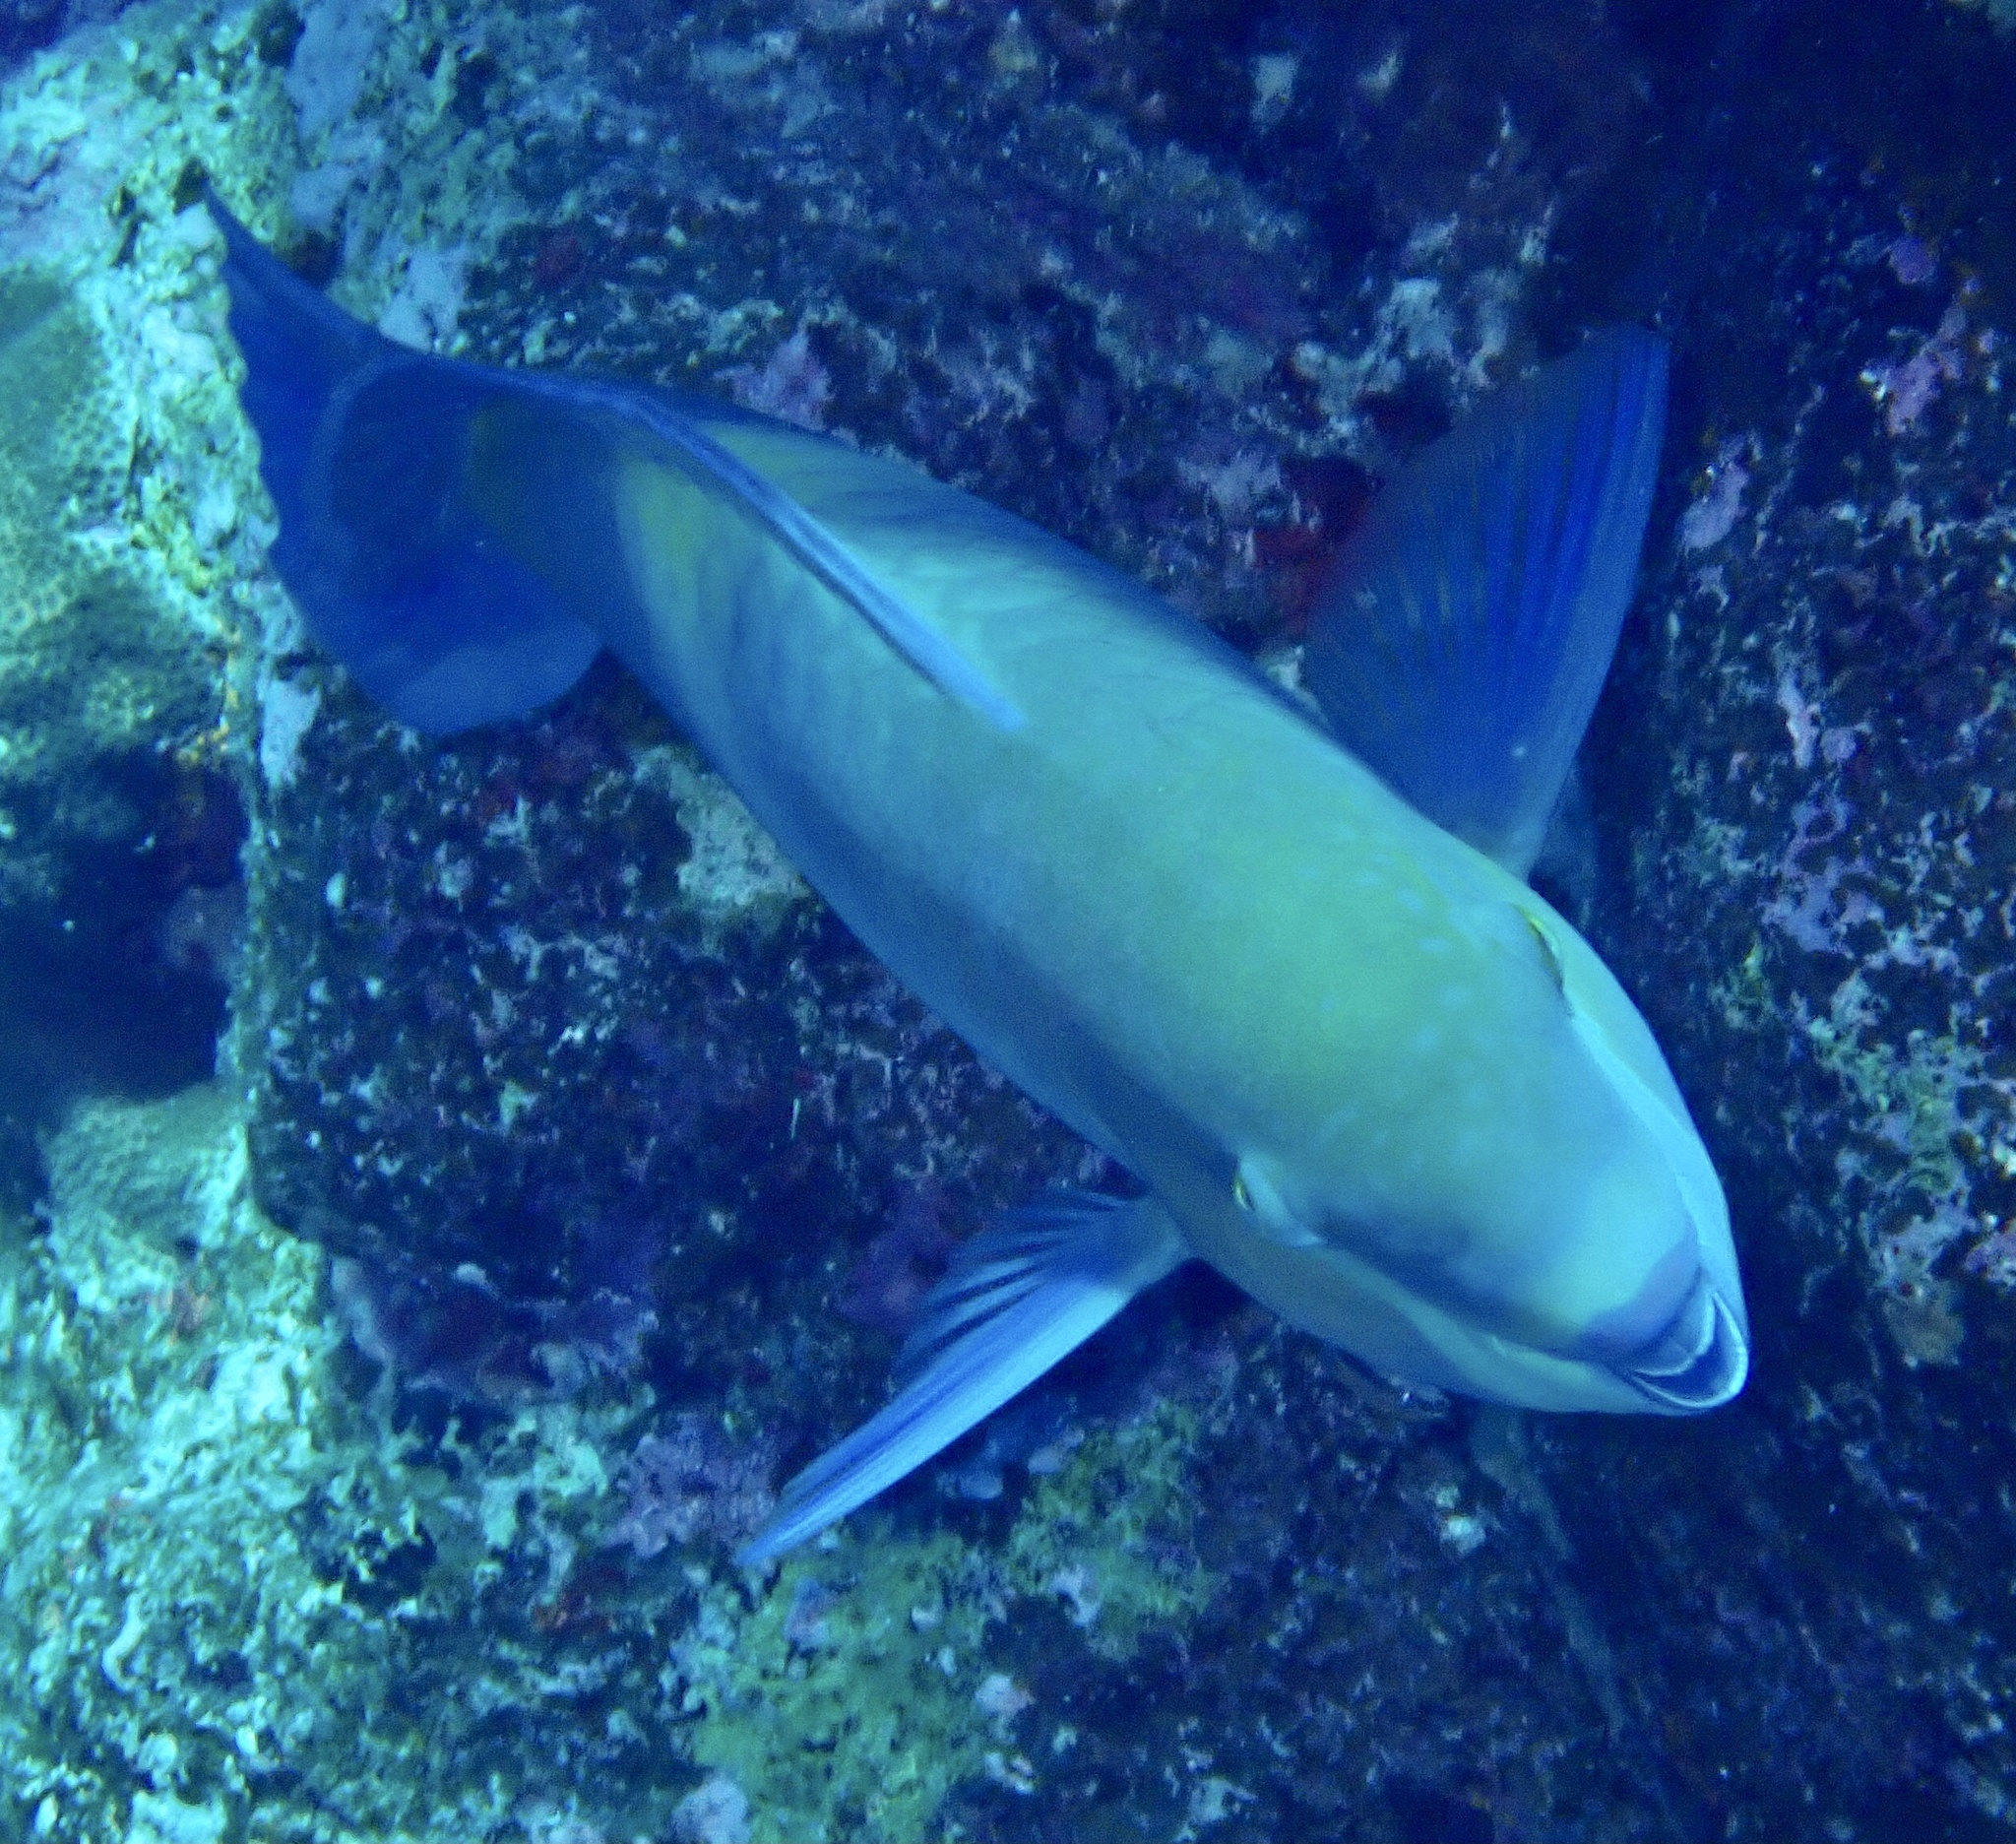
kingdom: Animalia
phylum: Chordata
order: Perciformes
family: Scaridae
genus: Scarus
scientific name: Scarus ferrugineus
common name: Rusty parrotfish
